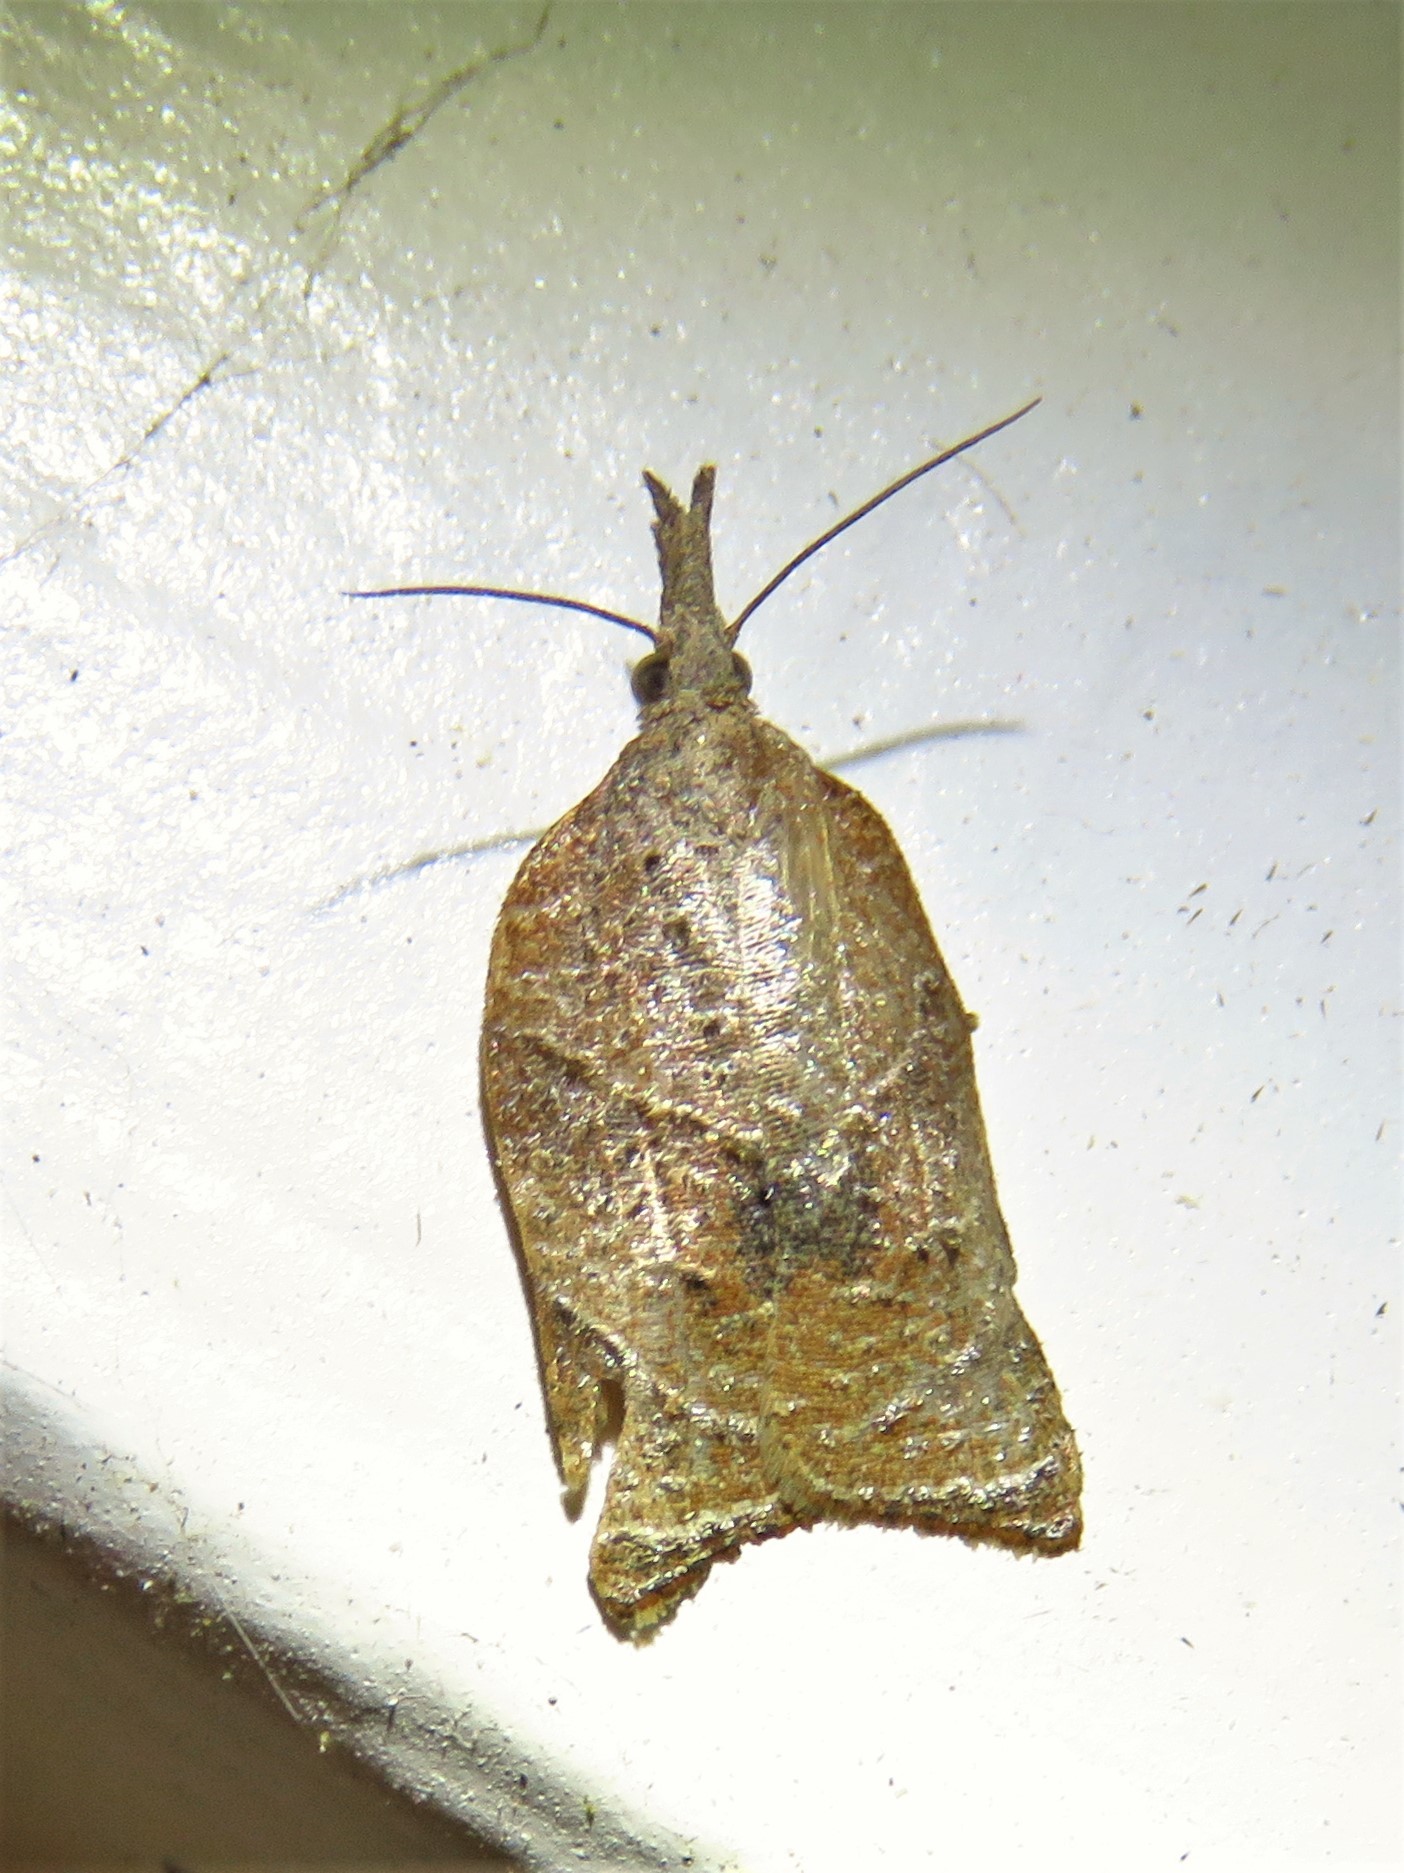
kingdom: Animalia
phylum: Arthropoda
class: Insecta
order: Lepidoptera
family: Tortricidae
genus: Platynota
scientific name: Platynota rostrana
